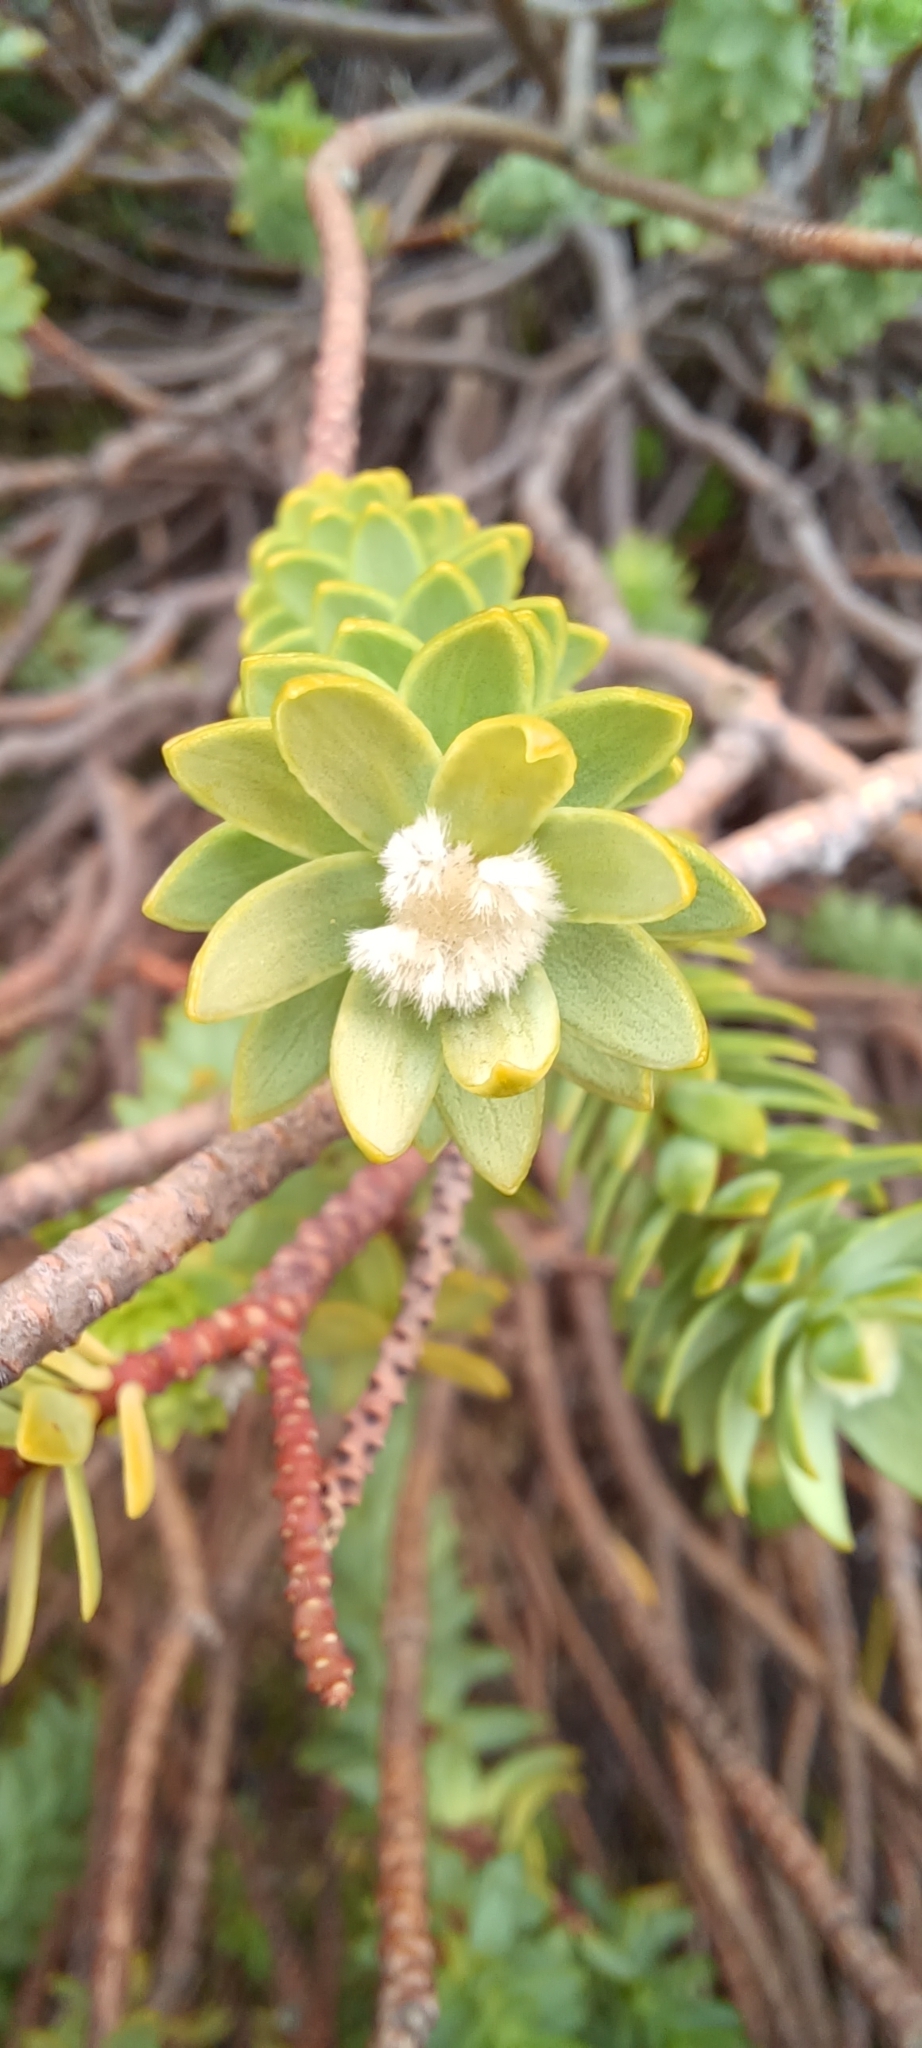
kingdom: Plantae
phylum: Tracheophyta
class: Magnoliopsida
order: Malvales
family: Thymelaeaceae
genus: Lachnaea
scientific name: Lachnaea pomposa
